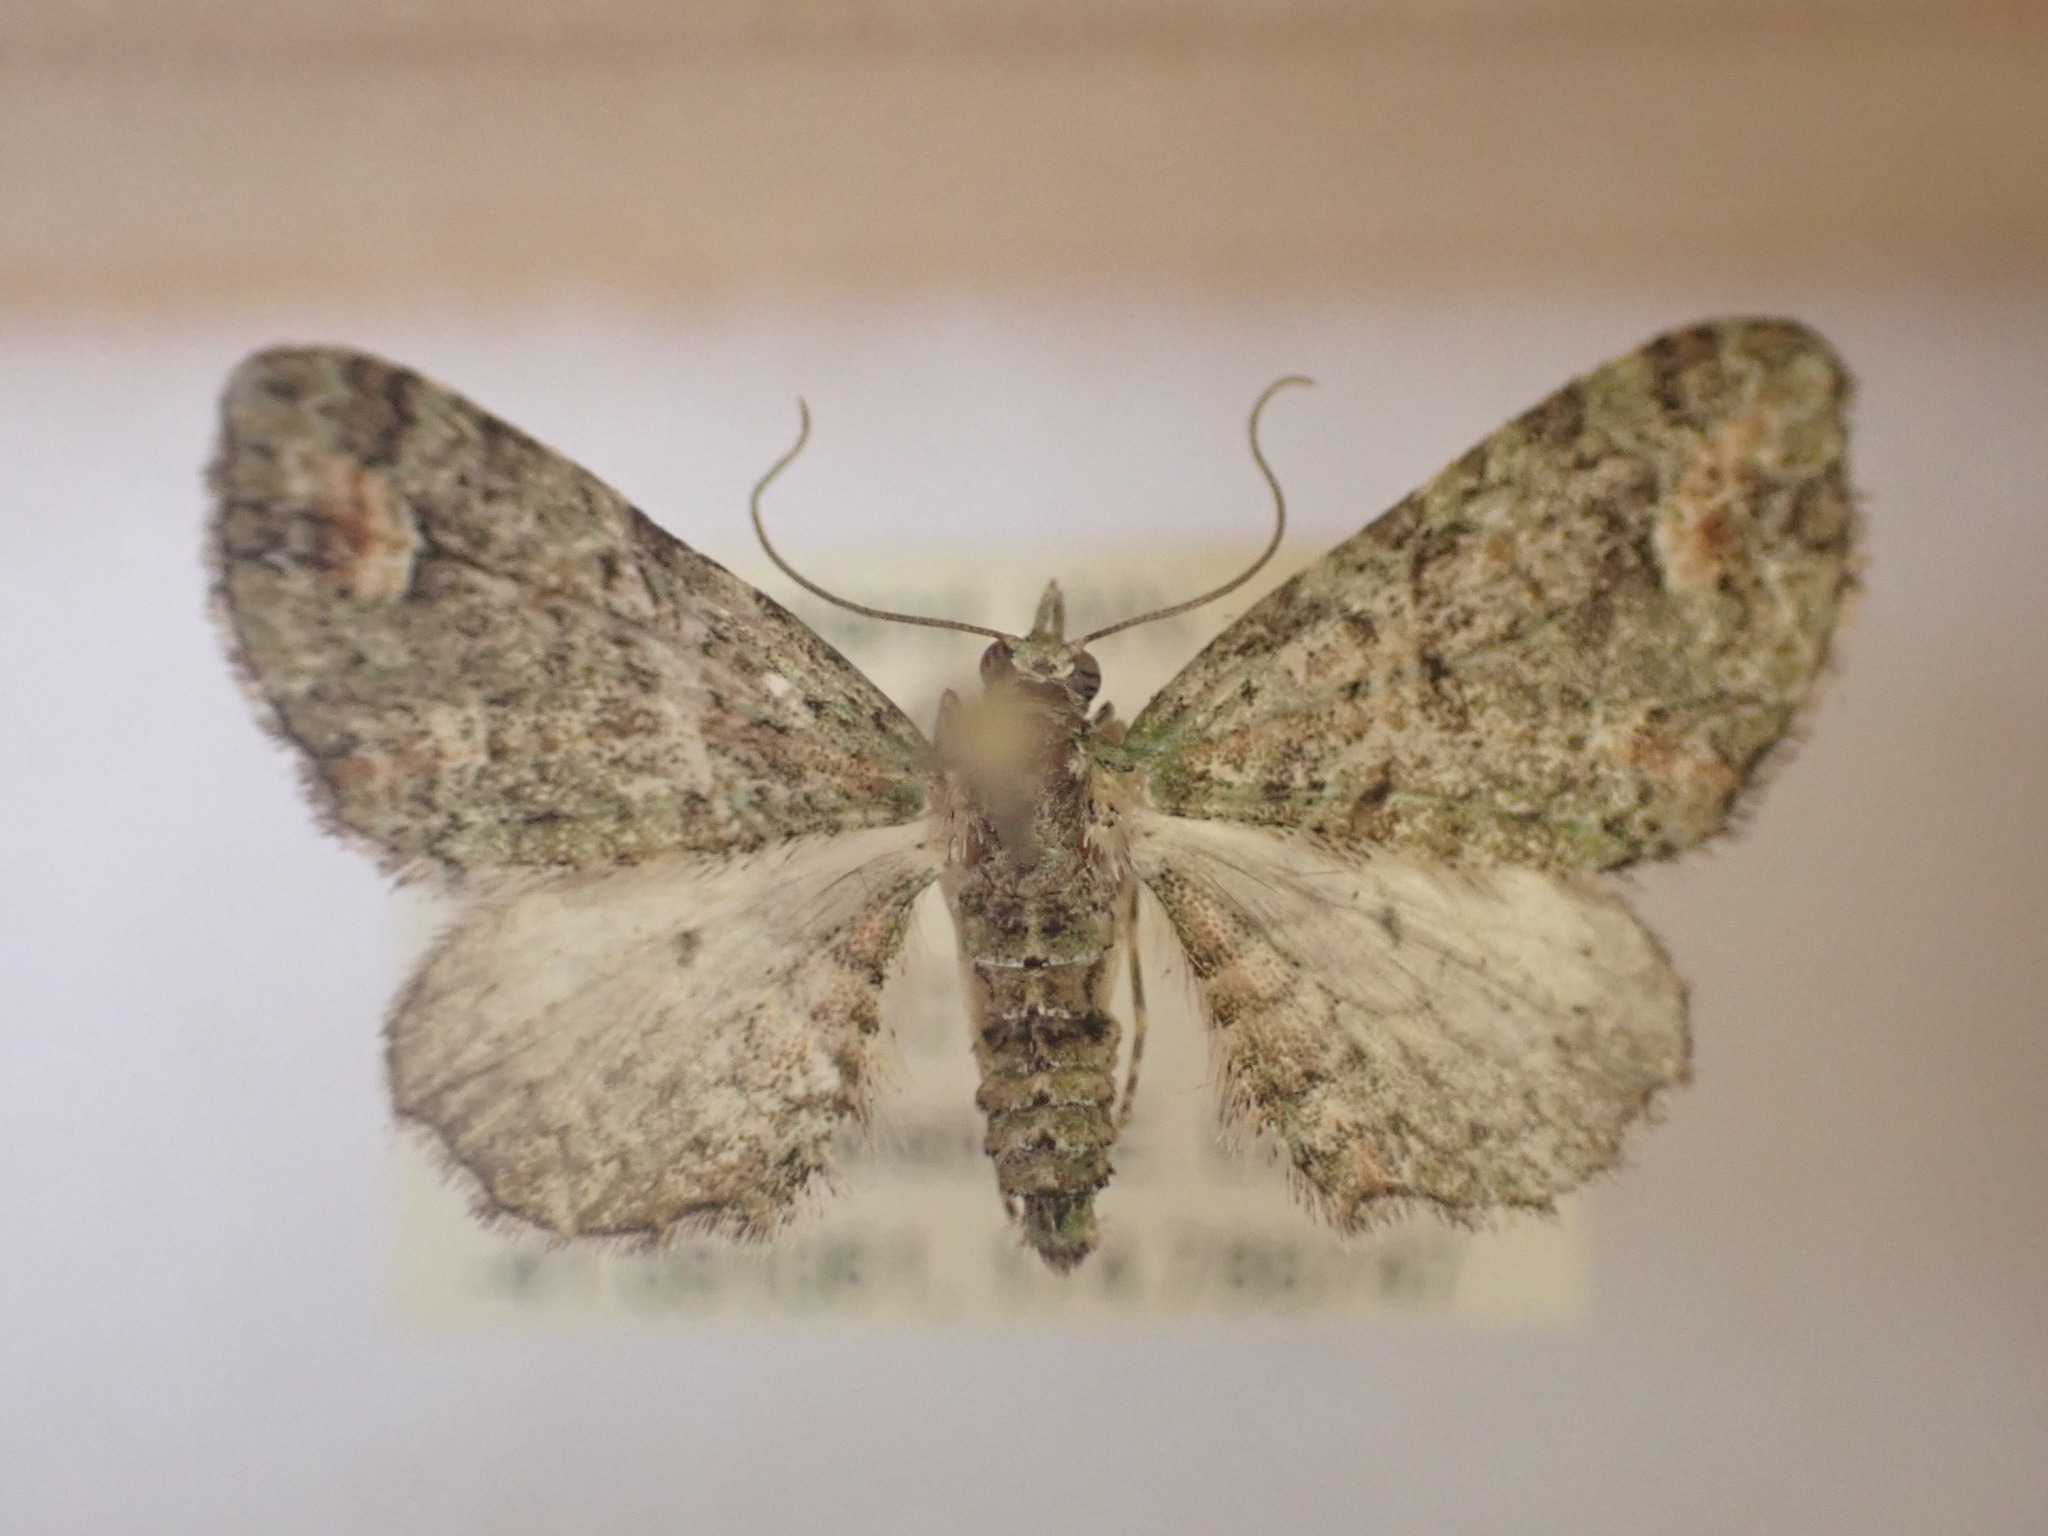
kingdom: Animalia
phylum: Arthropoda
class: Insecta
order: Lepidoptera
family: Geometridae
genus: Idaea
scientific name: Idaea mutanda
